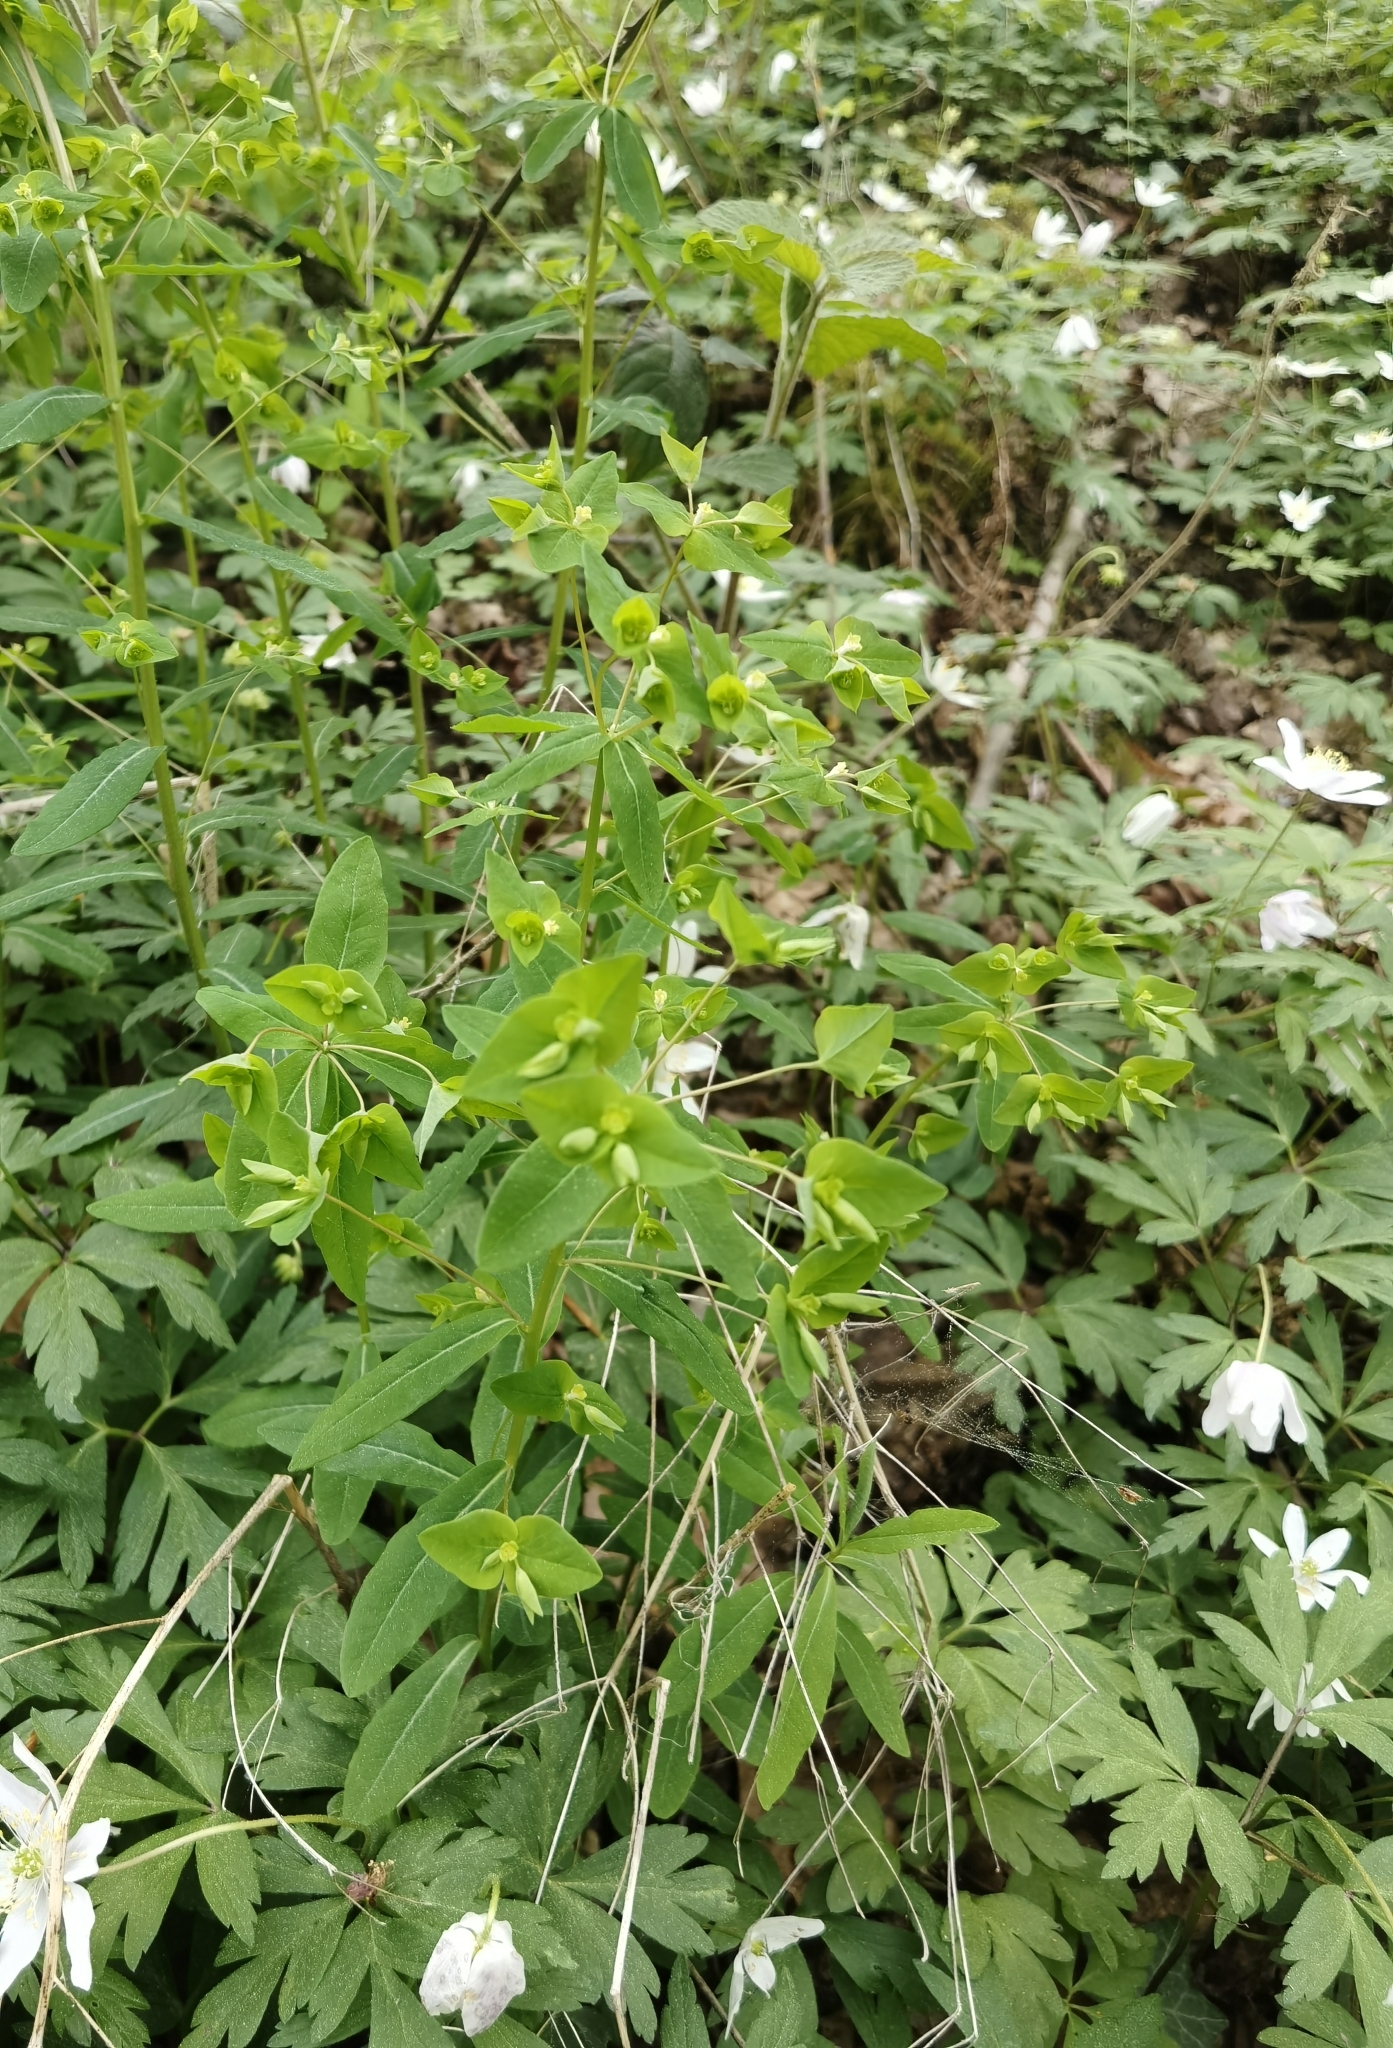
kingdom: Plantae
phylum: Tracheophyta
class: Magnoliopsida
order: Malpighiales
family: Euphorbiaceae
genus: Euphorbia
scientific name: Euphorbia amygdaloides
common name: Wood spurge
